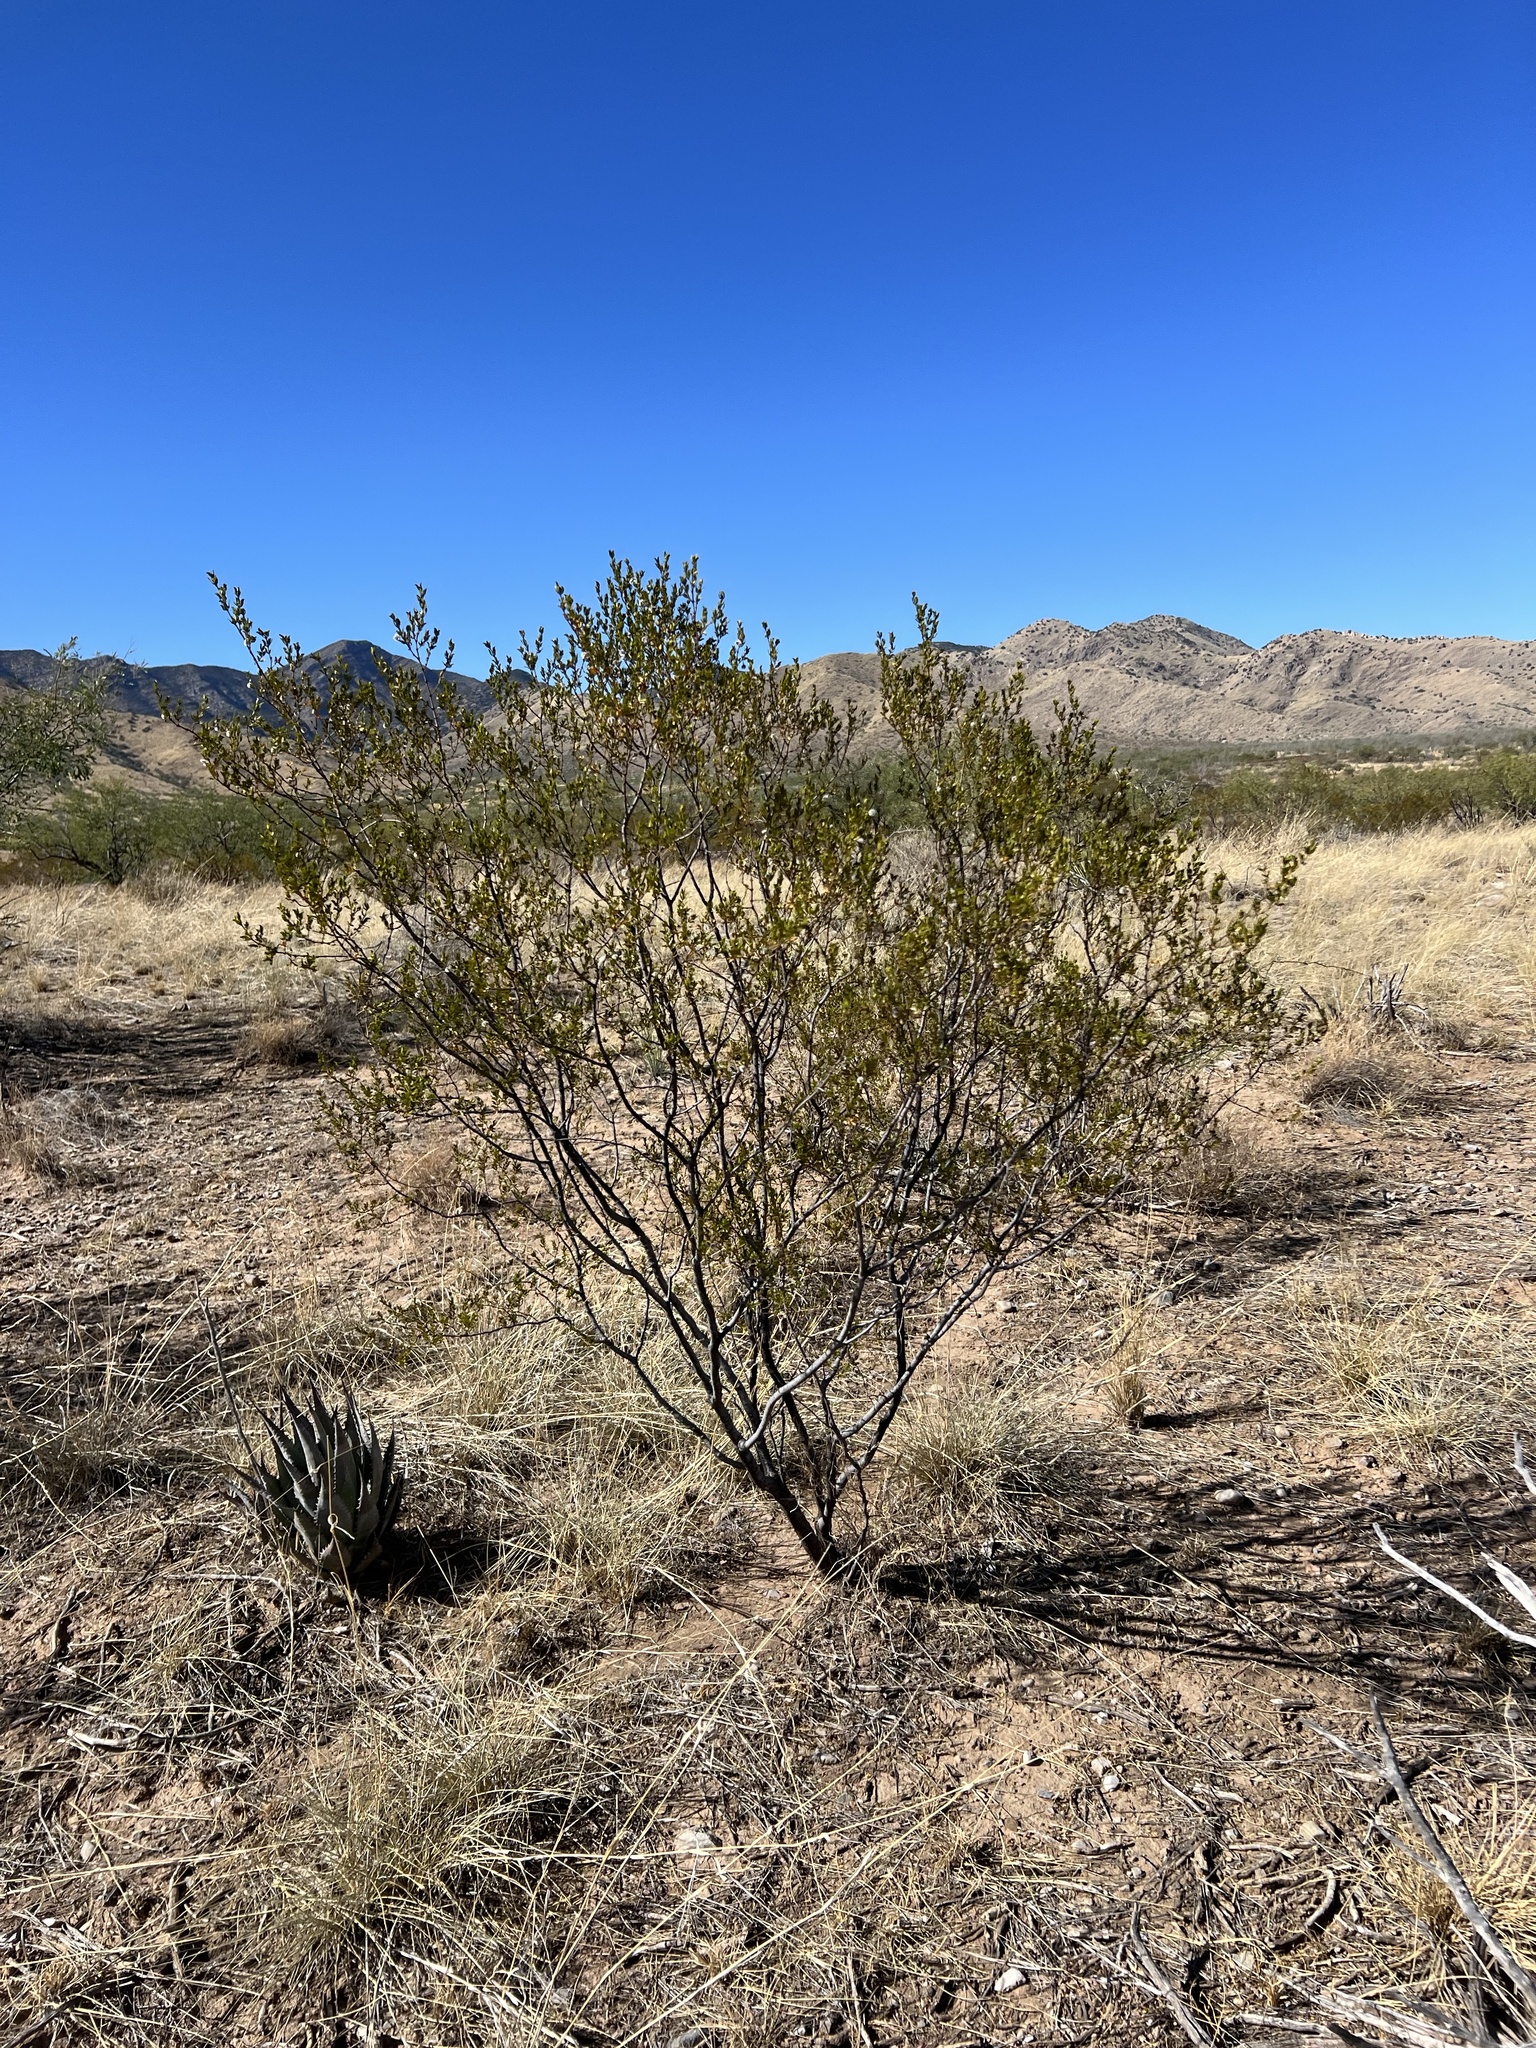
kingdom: Plantae
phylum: Tracheophyta
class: Magnoliopsida
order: Zygophyllales
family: Zygophyllaceae
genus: Larrea
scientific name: Larrea tridentata
